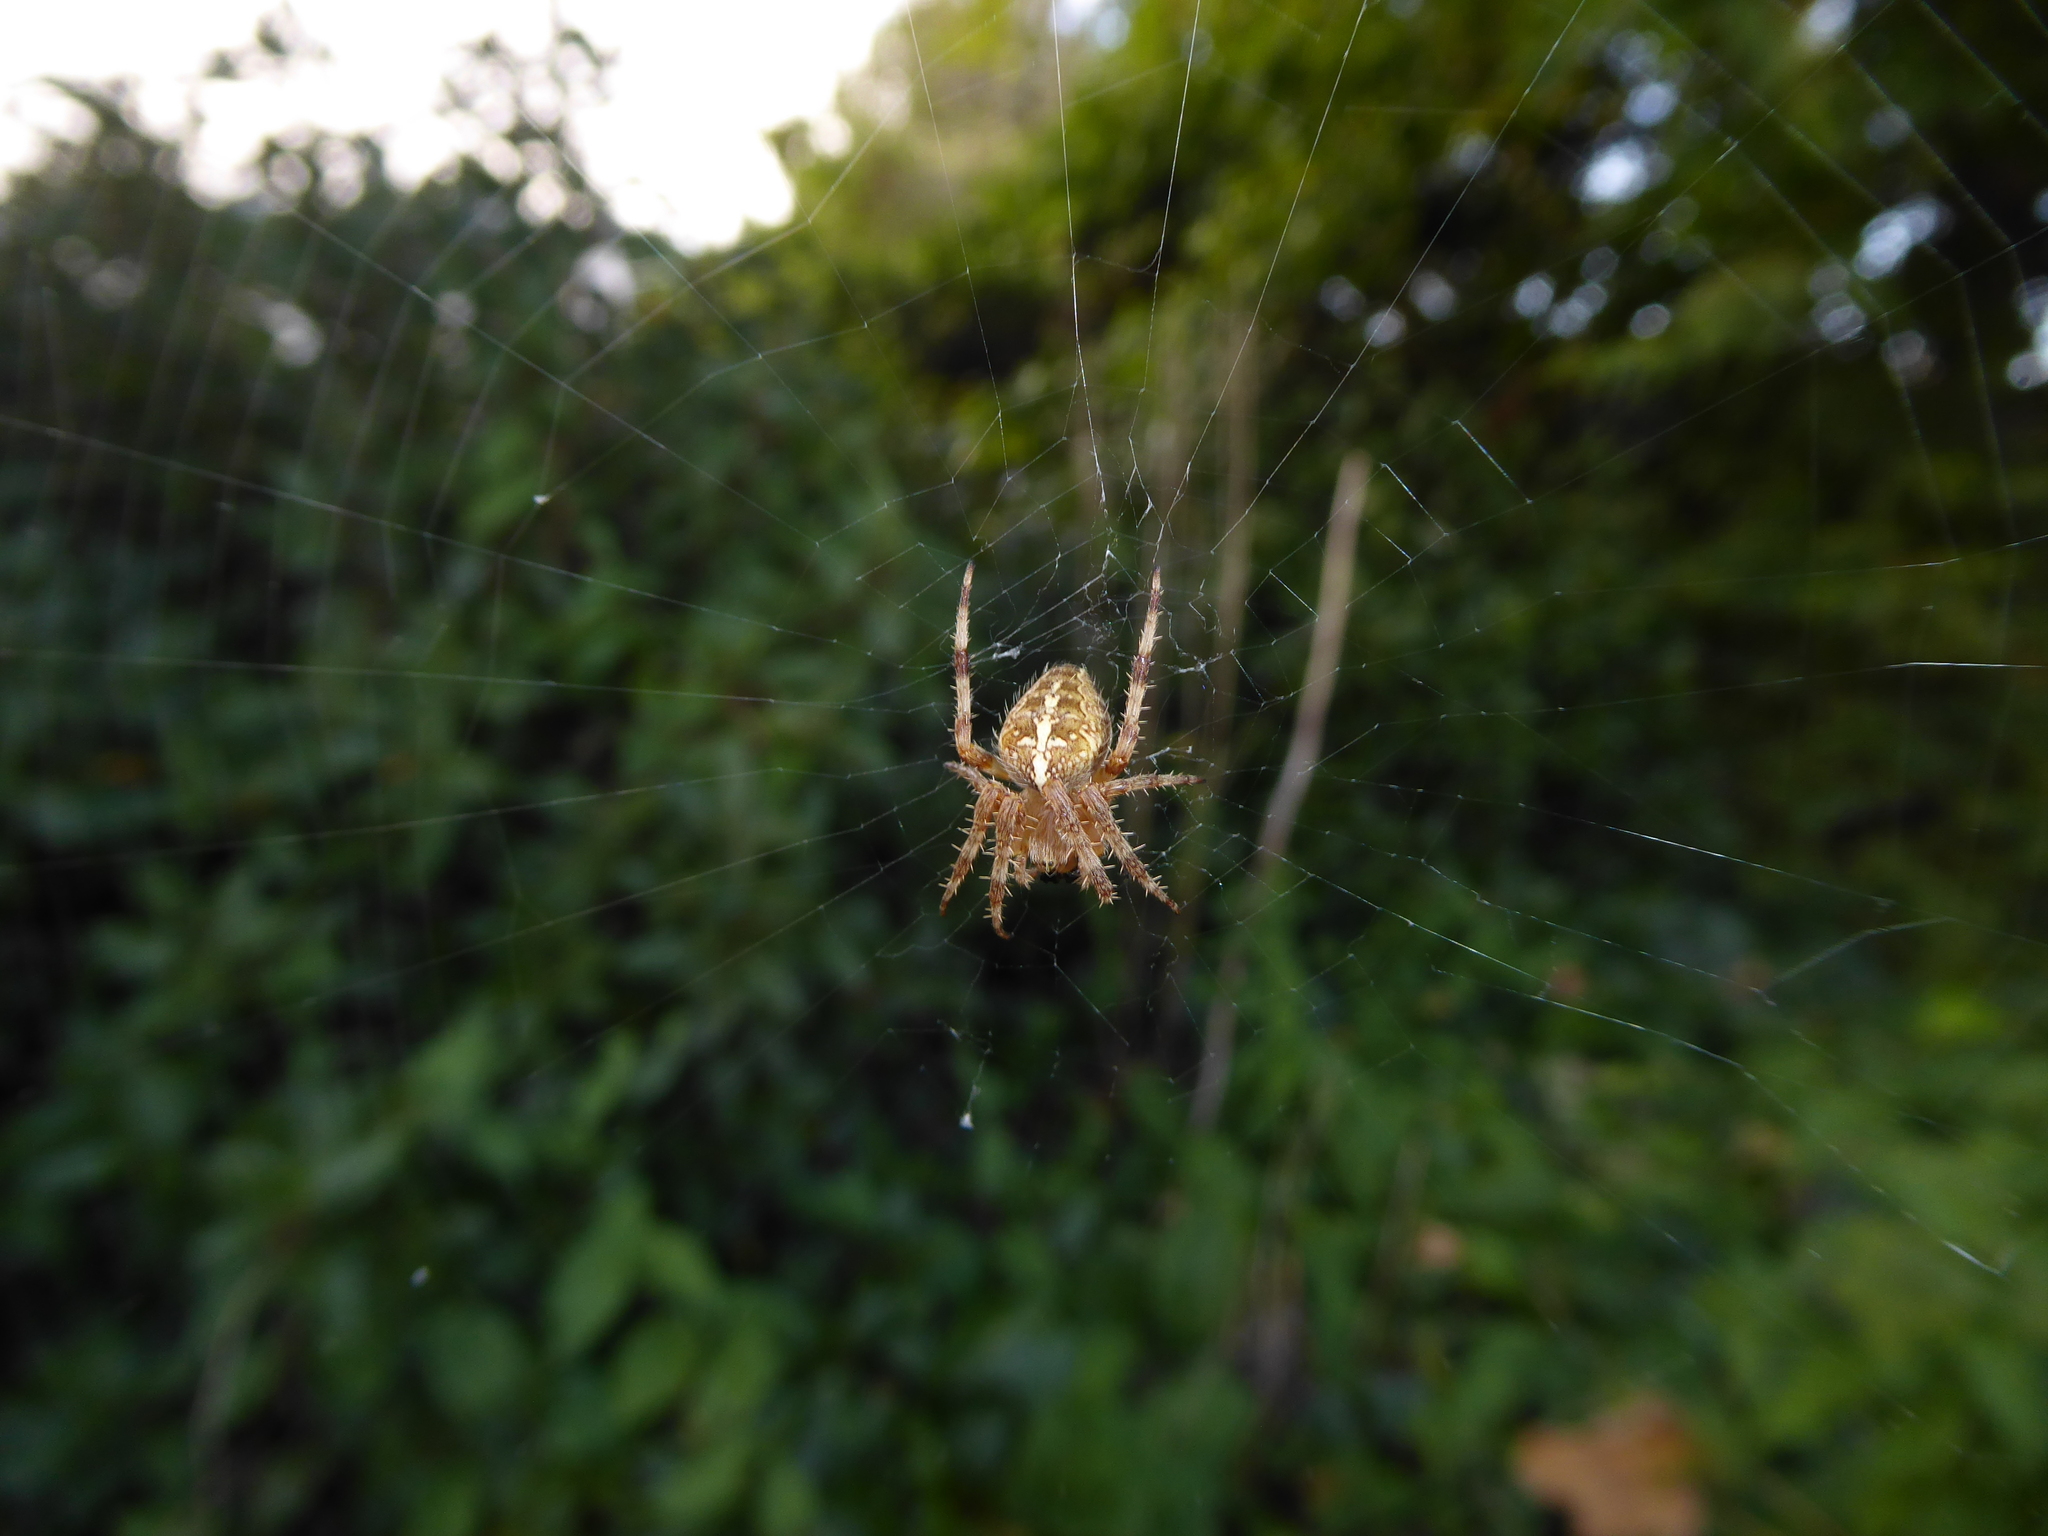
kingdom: Animalia
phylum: Arthropoda
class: Arachnida
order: Araneae
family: Araneidae
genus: Araneus
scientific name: Araneus diadematus
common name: Cross orbweaver
